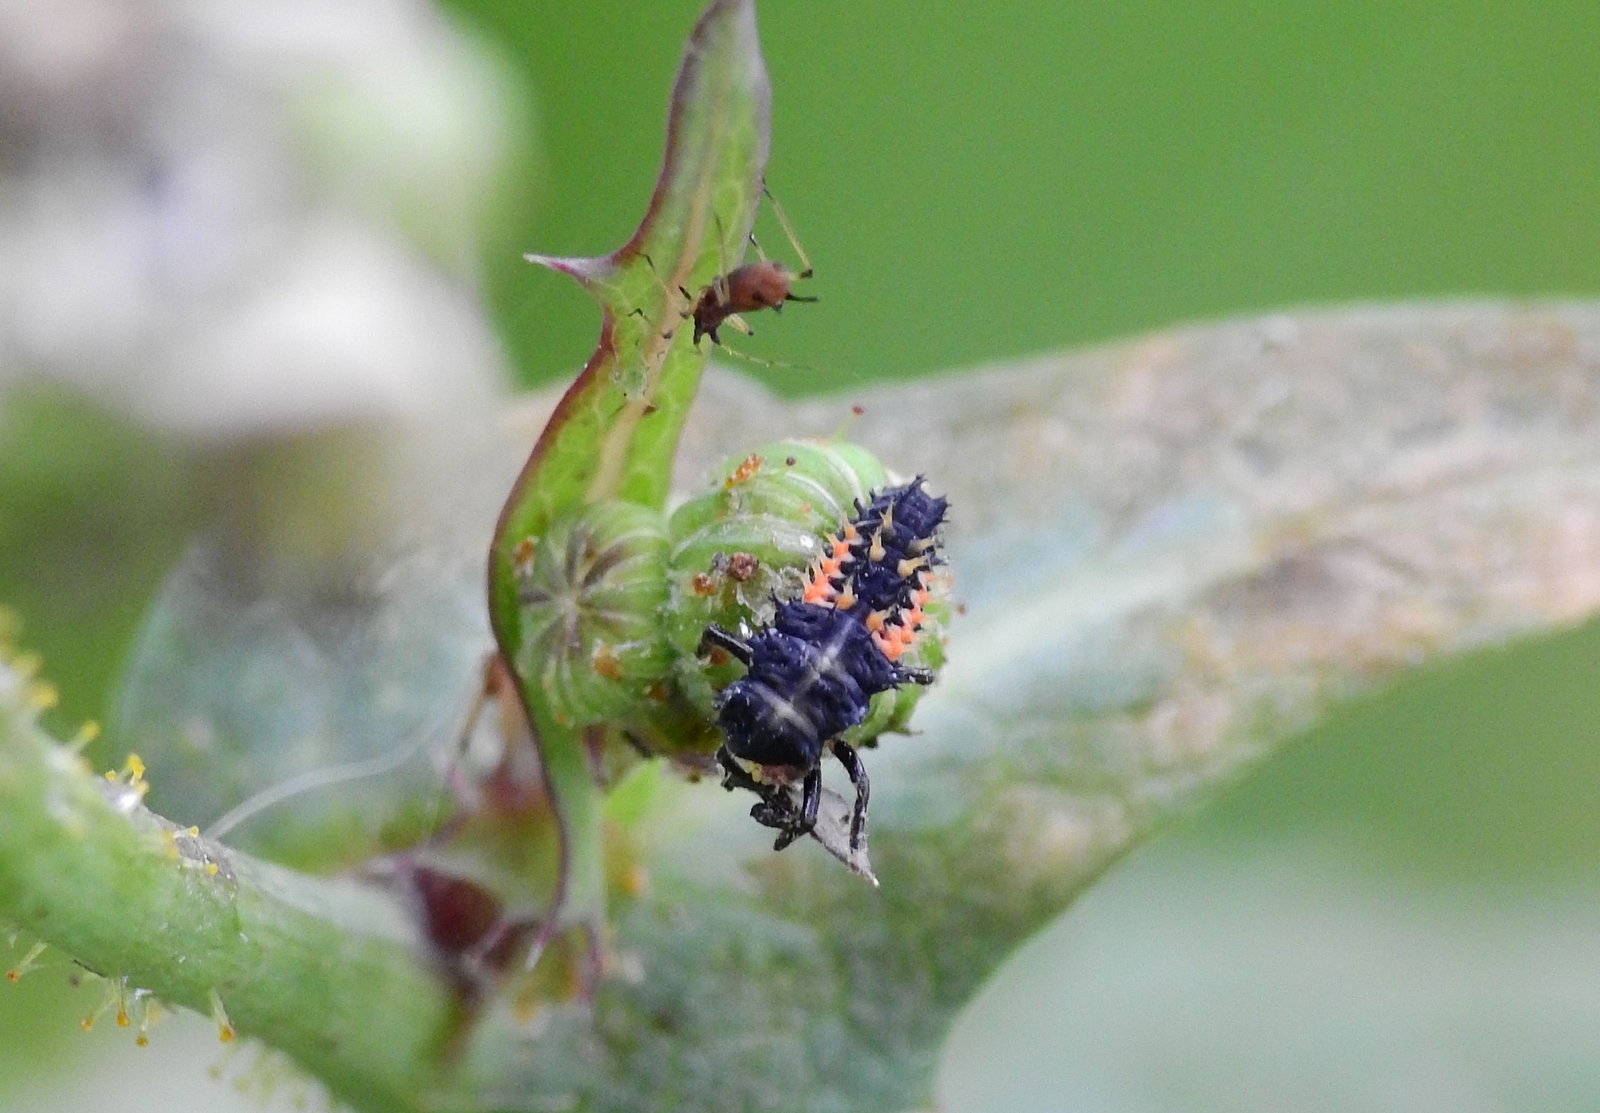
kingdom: Animalia
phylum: Arthropoda
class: Insecta
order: Coleoptera
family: Coccinellidae
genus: Harmonia
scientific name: Harmonia axyridis
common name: Harlequin ladybird
